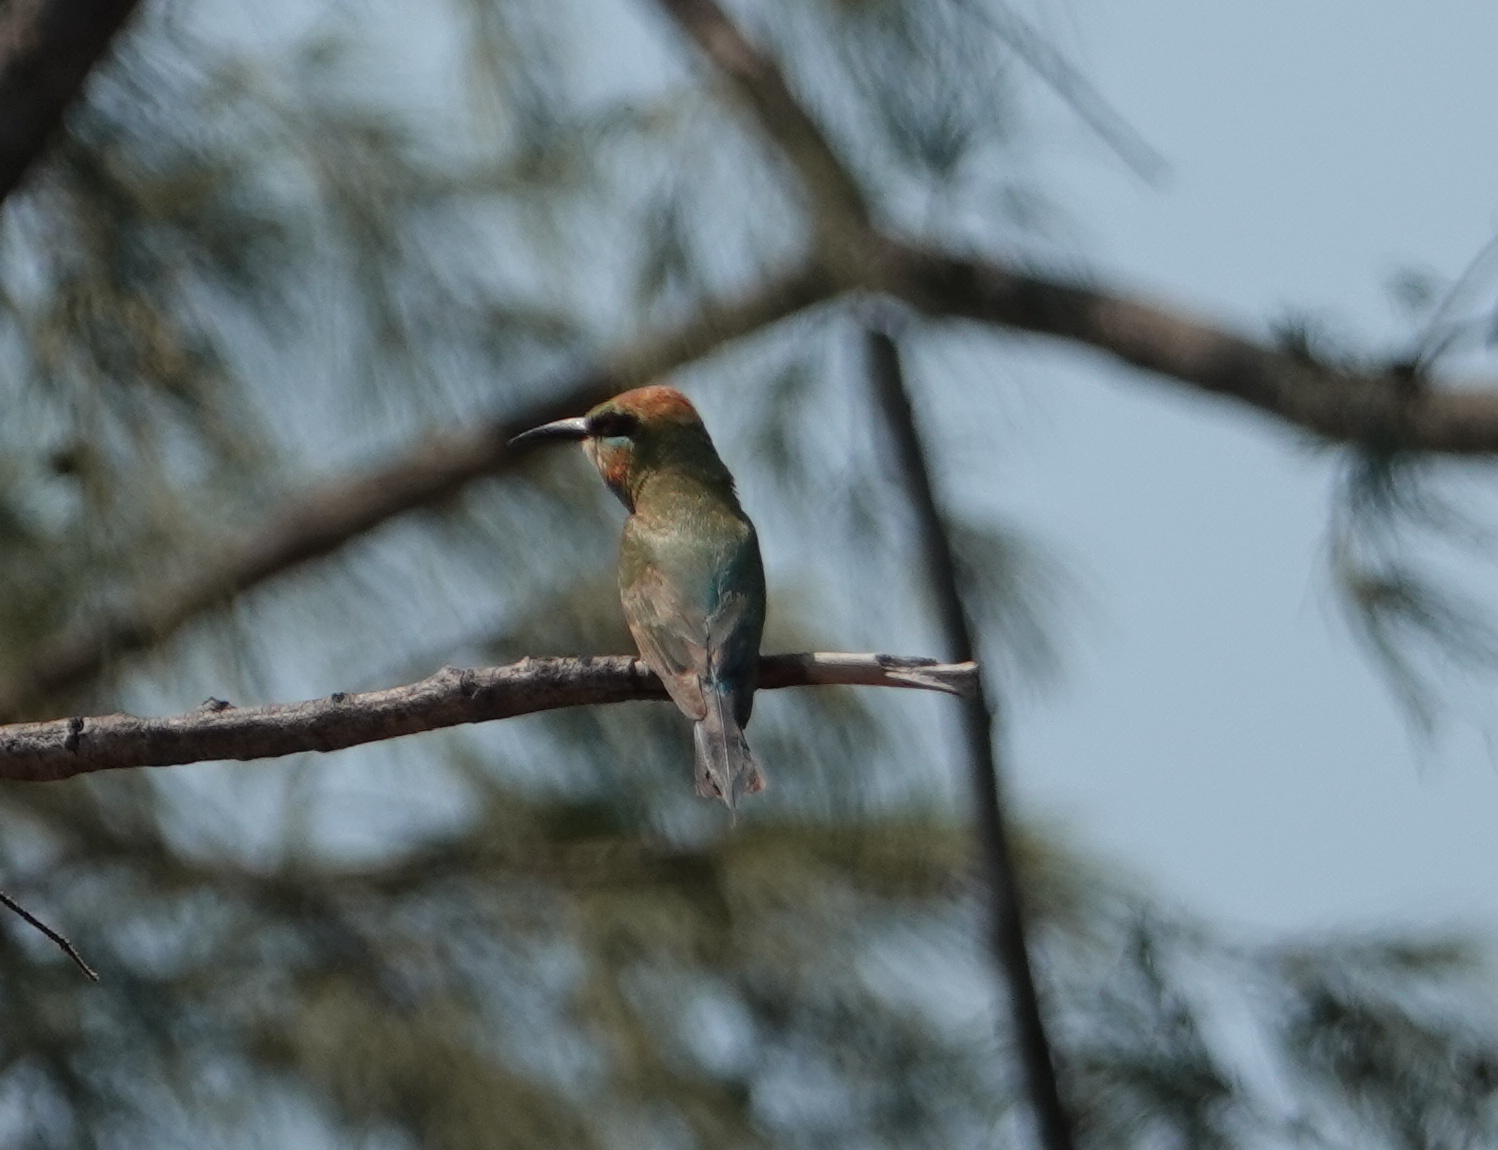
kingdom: Animalia
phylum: Chordata
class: Aves
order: Coraciiformes
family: Meropidae
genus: Merops
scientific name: Merops ornatus
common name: Rainbow bee-eater
